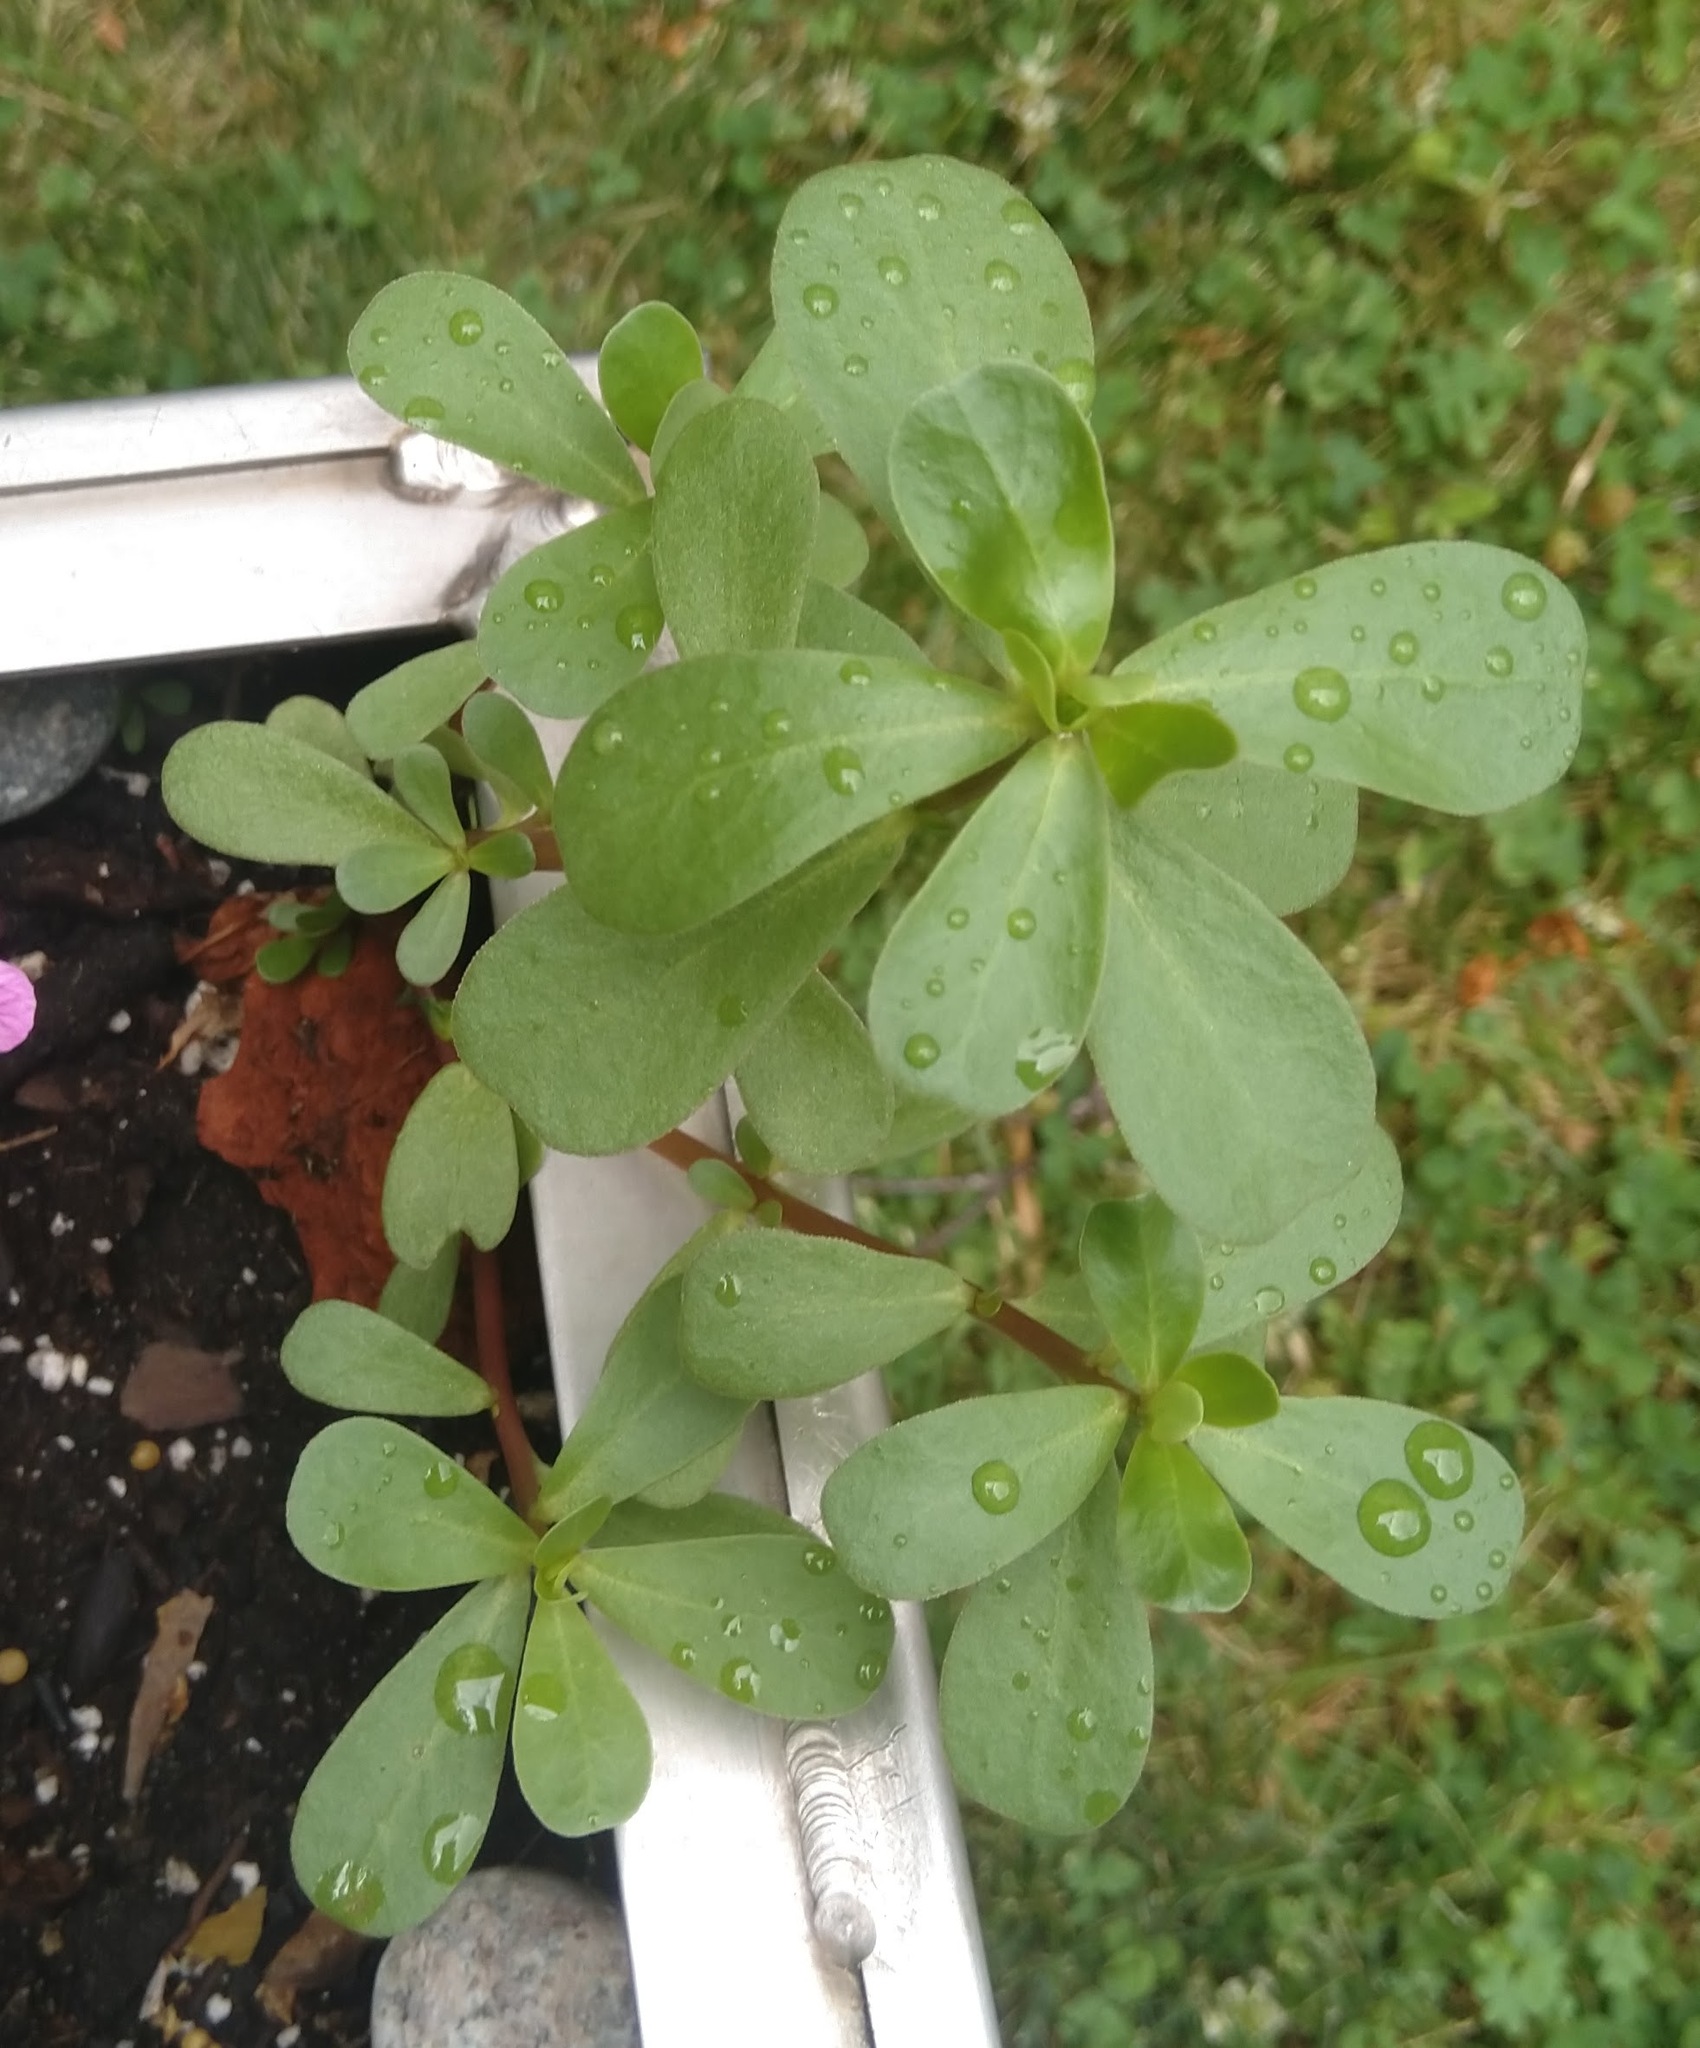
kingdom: Plantae
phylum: Tracheophyta
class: Magnoliopsida
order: Caryophyllales
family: Portulacaceae
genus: Portulaca
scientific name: Portulaca oleracea
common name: Common purslane
